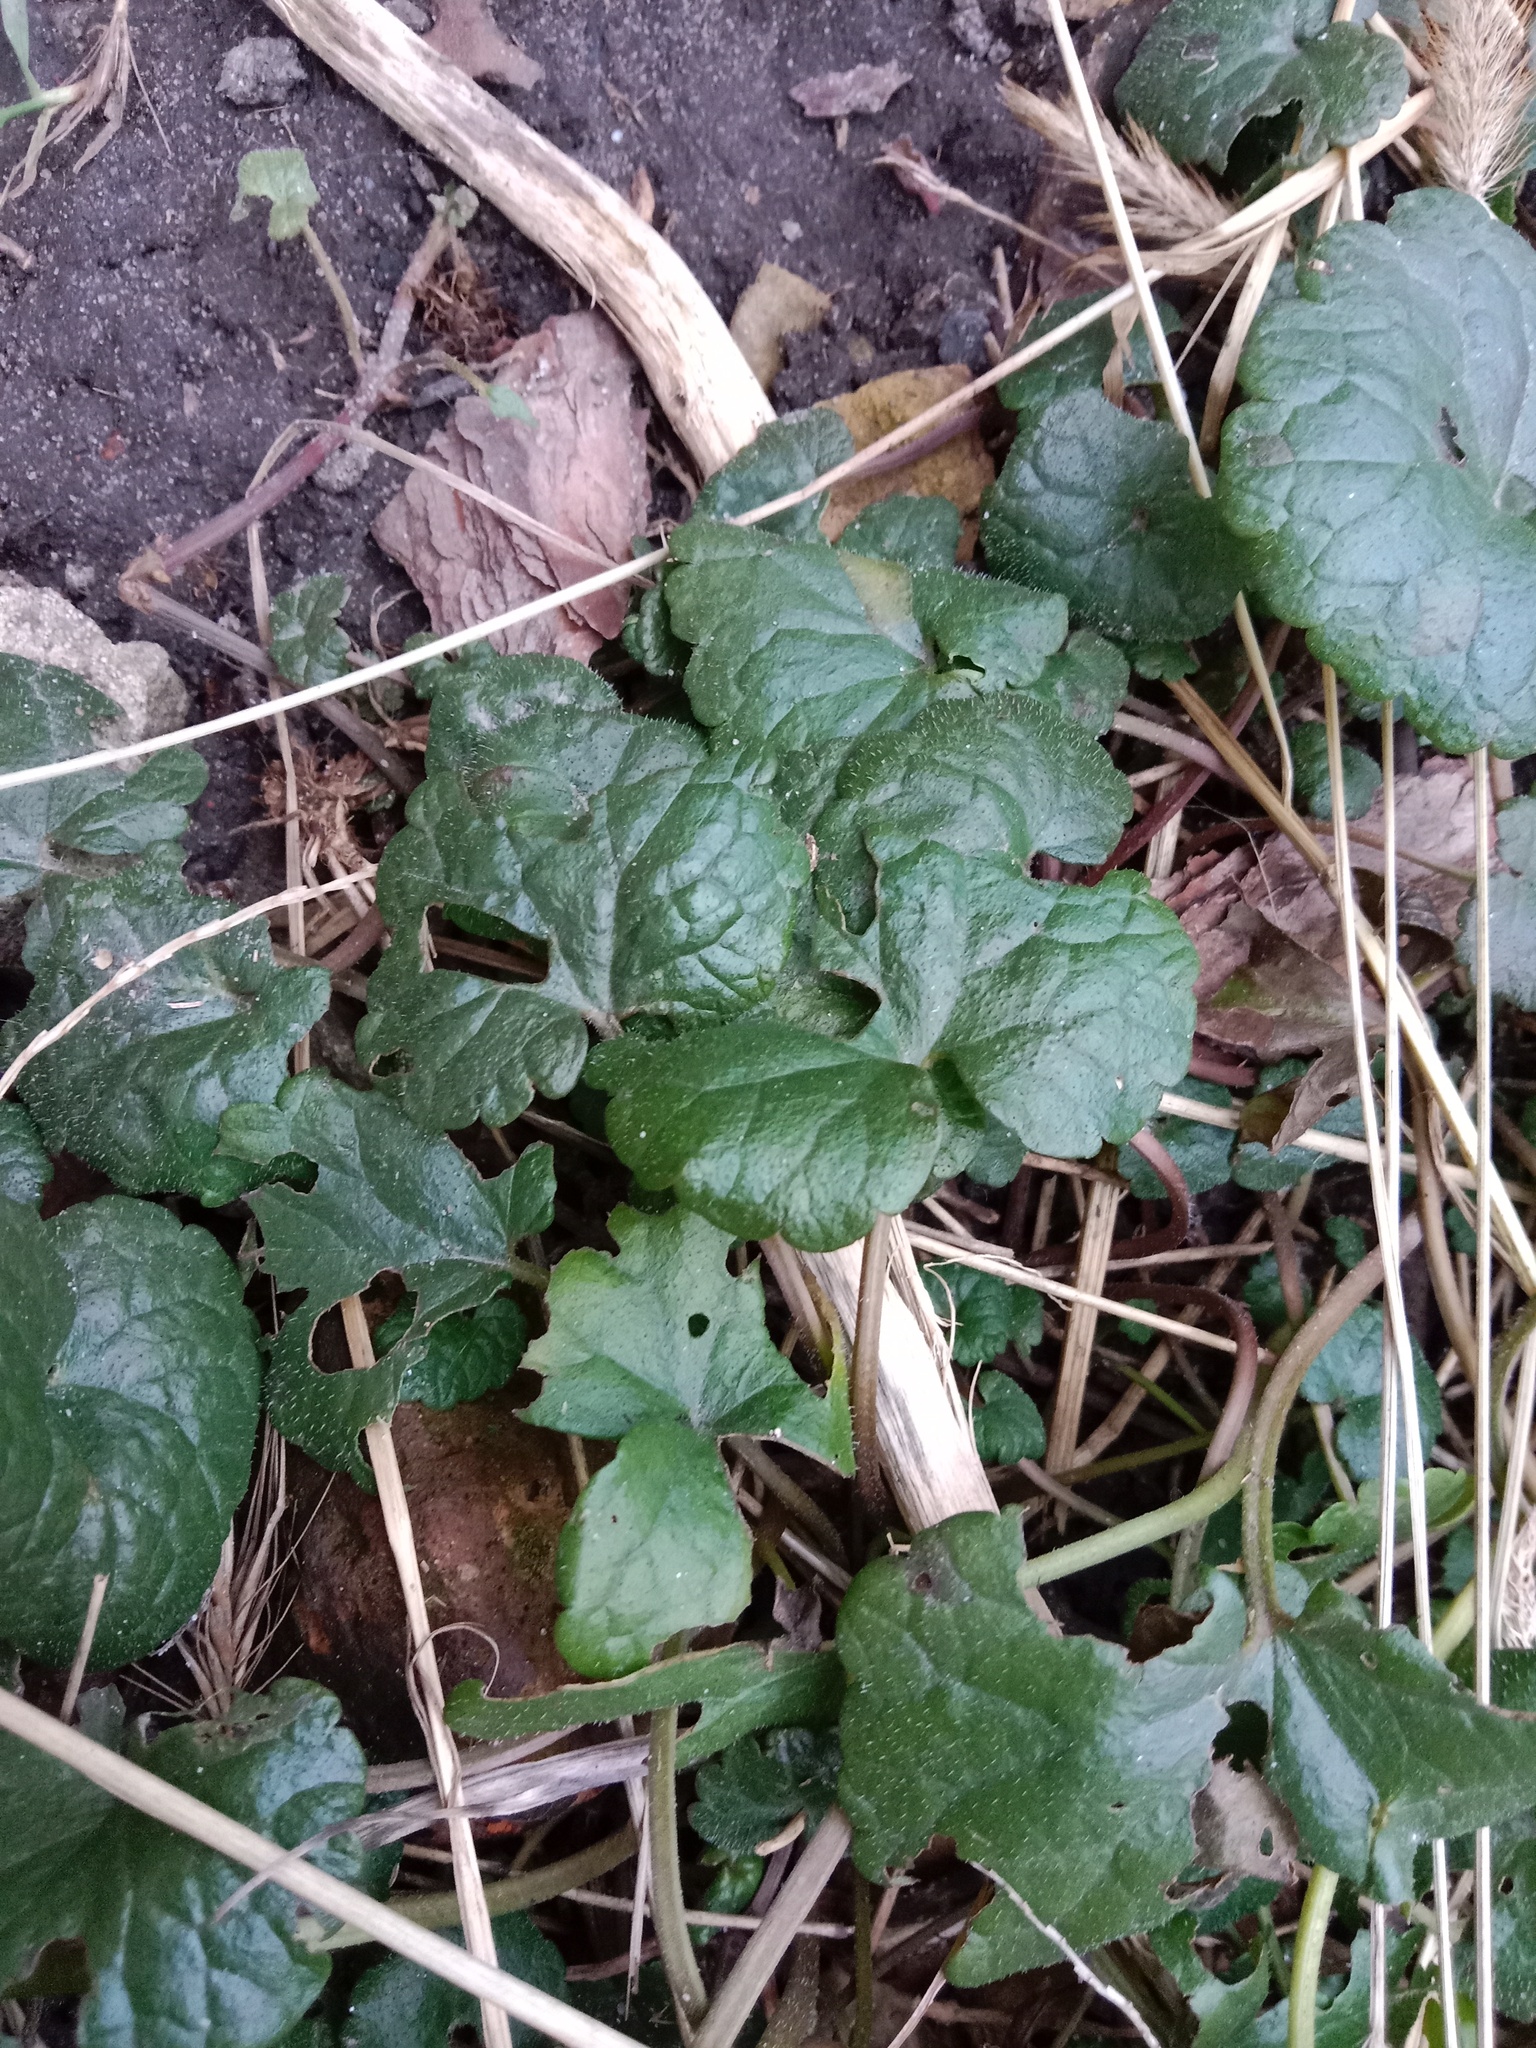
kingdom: Plantae
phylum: Tracheophyta
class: Magnoliopsida
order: Lamiales
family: Lamiaceae
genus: Glechoma
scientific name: Glechoma hederacea
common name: Ground ivy
